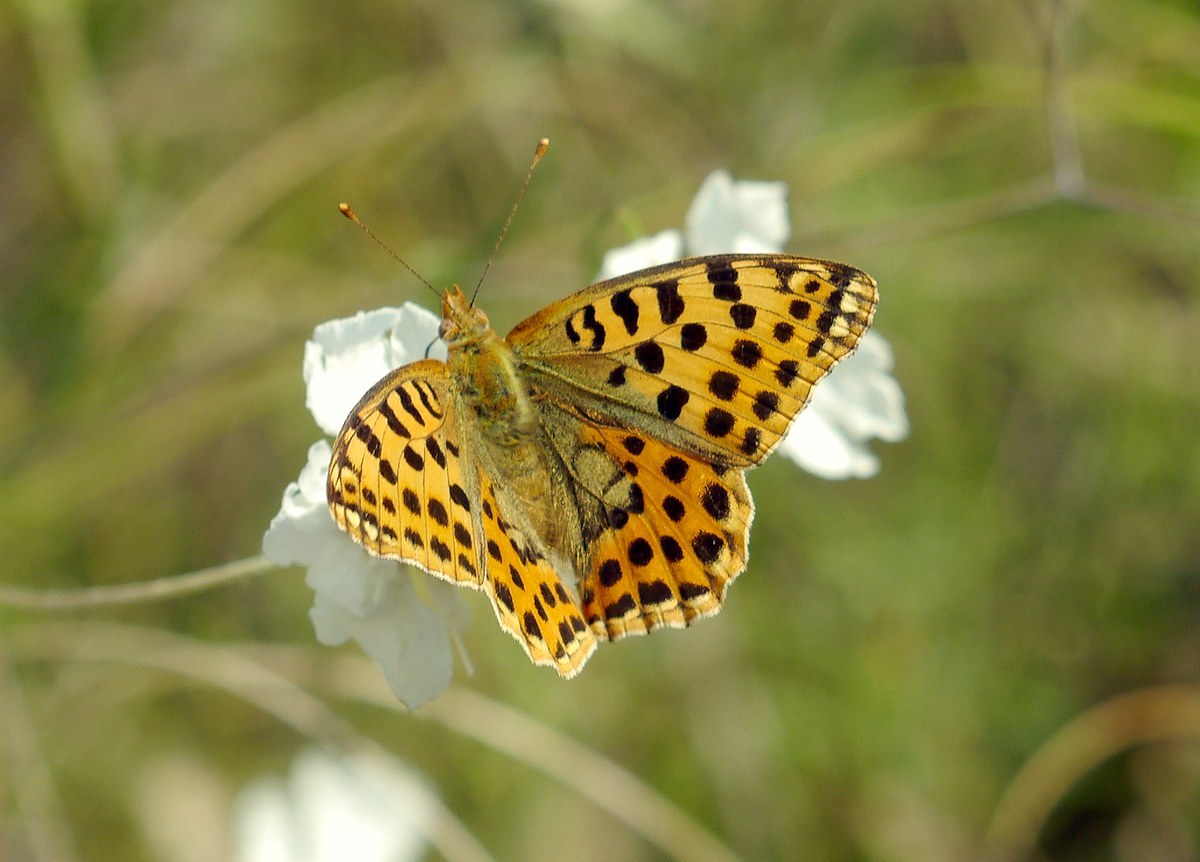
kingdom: Animalia
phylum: Arthropoda
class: Insecta
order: Lepidoptera
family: Nymphalidae
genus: Issoria
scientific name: Issoria lathonia
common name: Queen of spain fritillary
